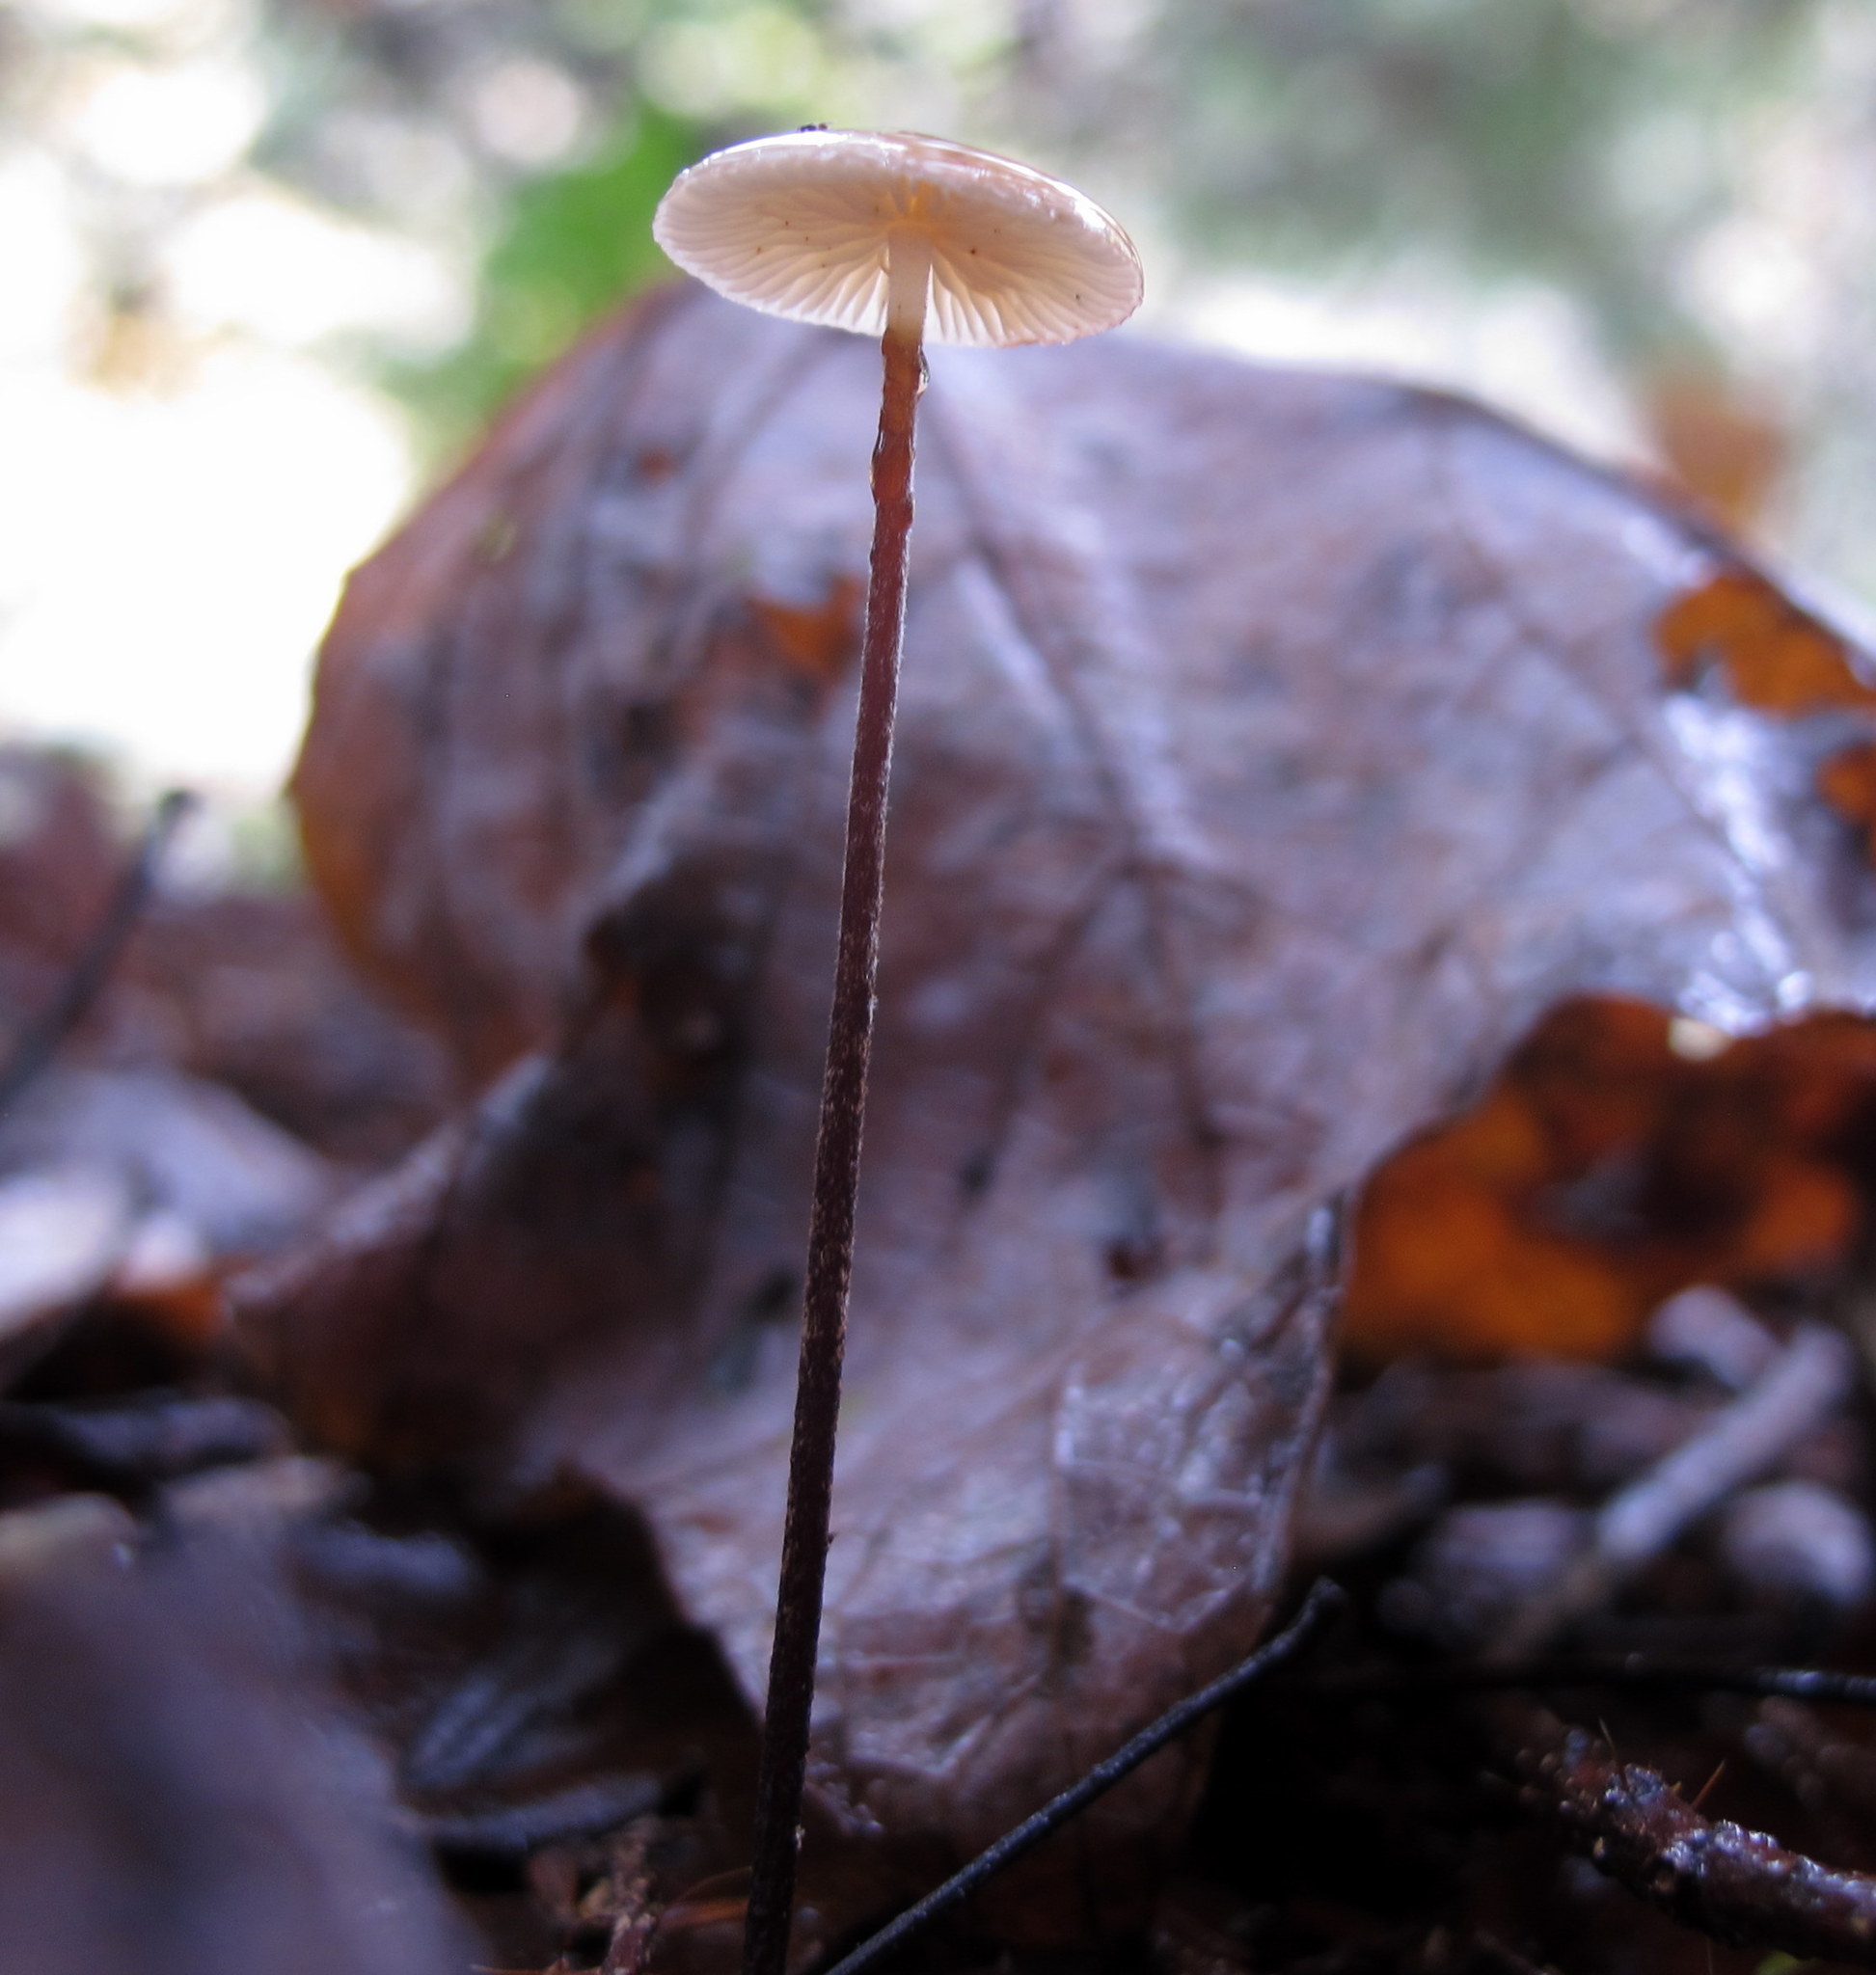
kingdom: Fungi
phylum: Basidiomycota
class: Agaricomycetes
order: Agaricales
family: Physalacriaceae
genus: Rhizomarasmius
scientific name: Rhizomarasmius pyrrhocephalus
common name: Hairy long stem marasmius
